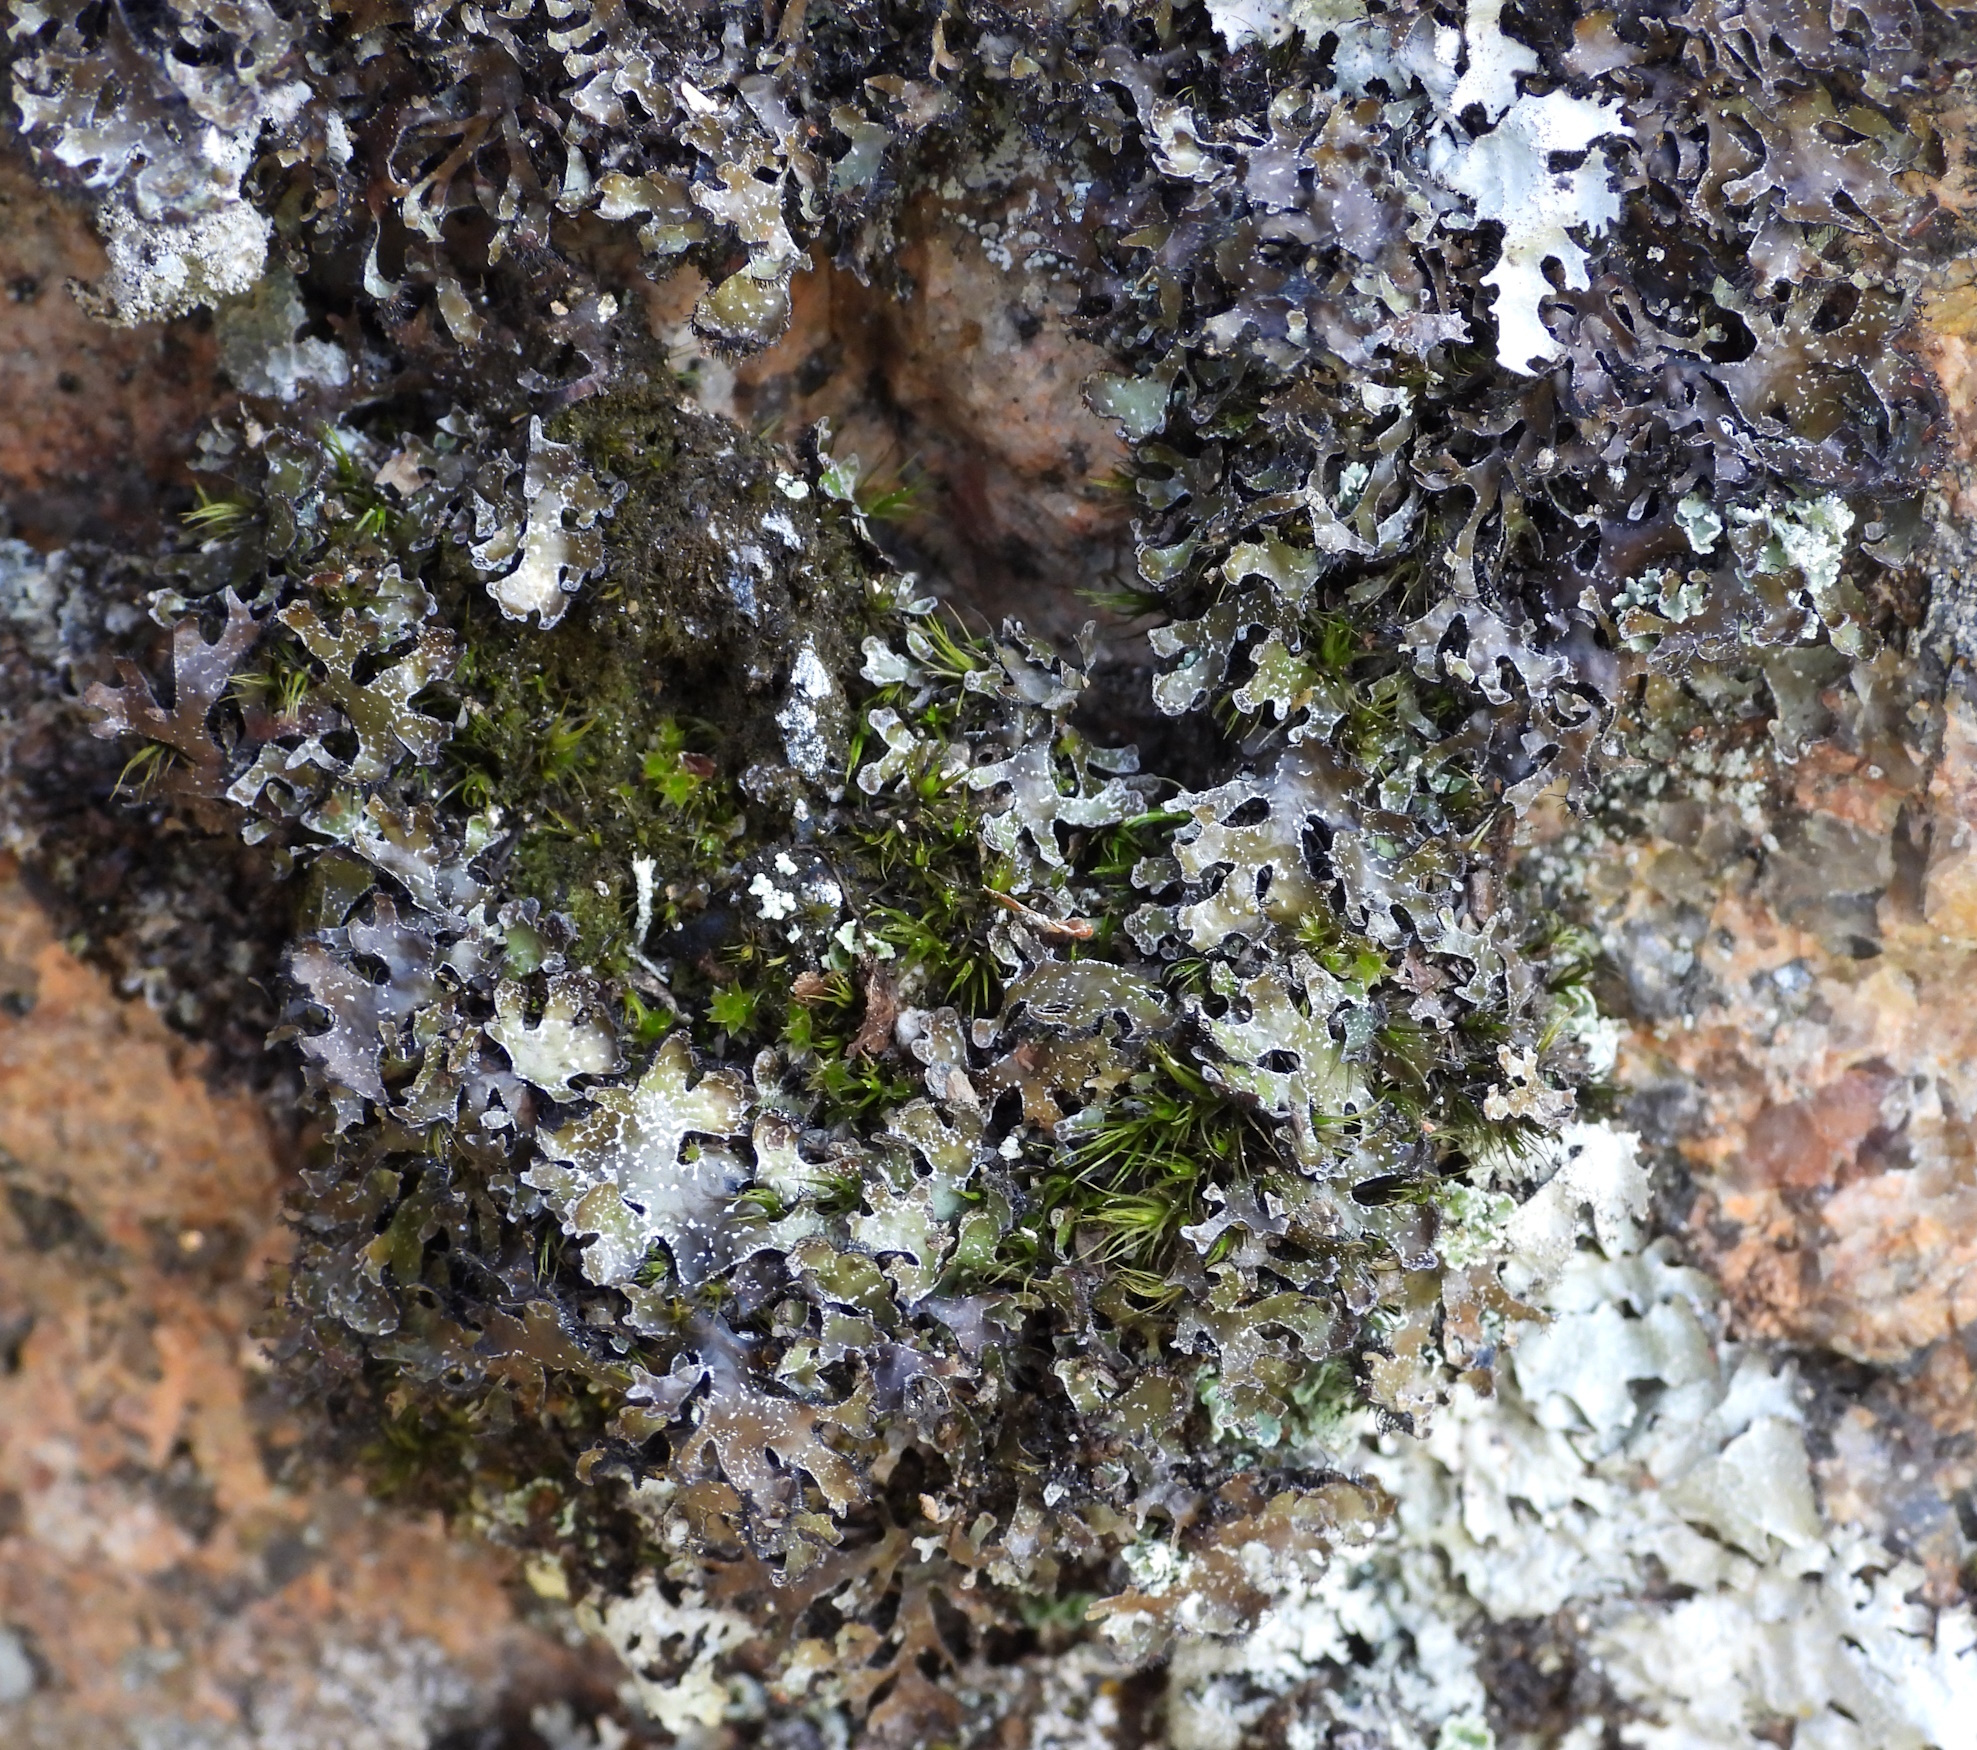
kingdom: Fungi
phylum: Ascomycota
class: Lecanoromycetes
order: Lecanorales
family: Parmeliaceae
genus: Parmelia
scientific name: Parmelia omphalodes
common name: Smoky crottle
